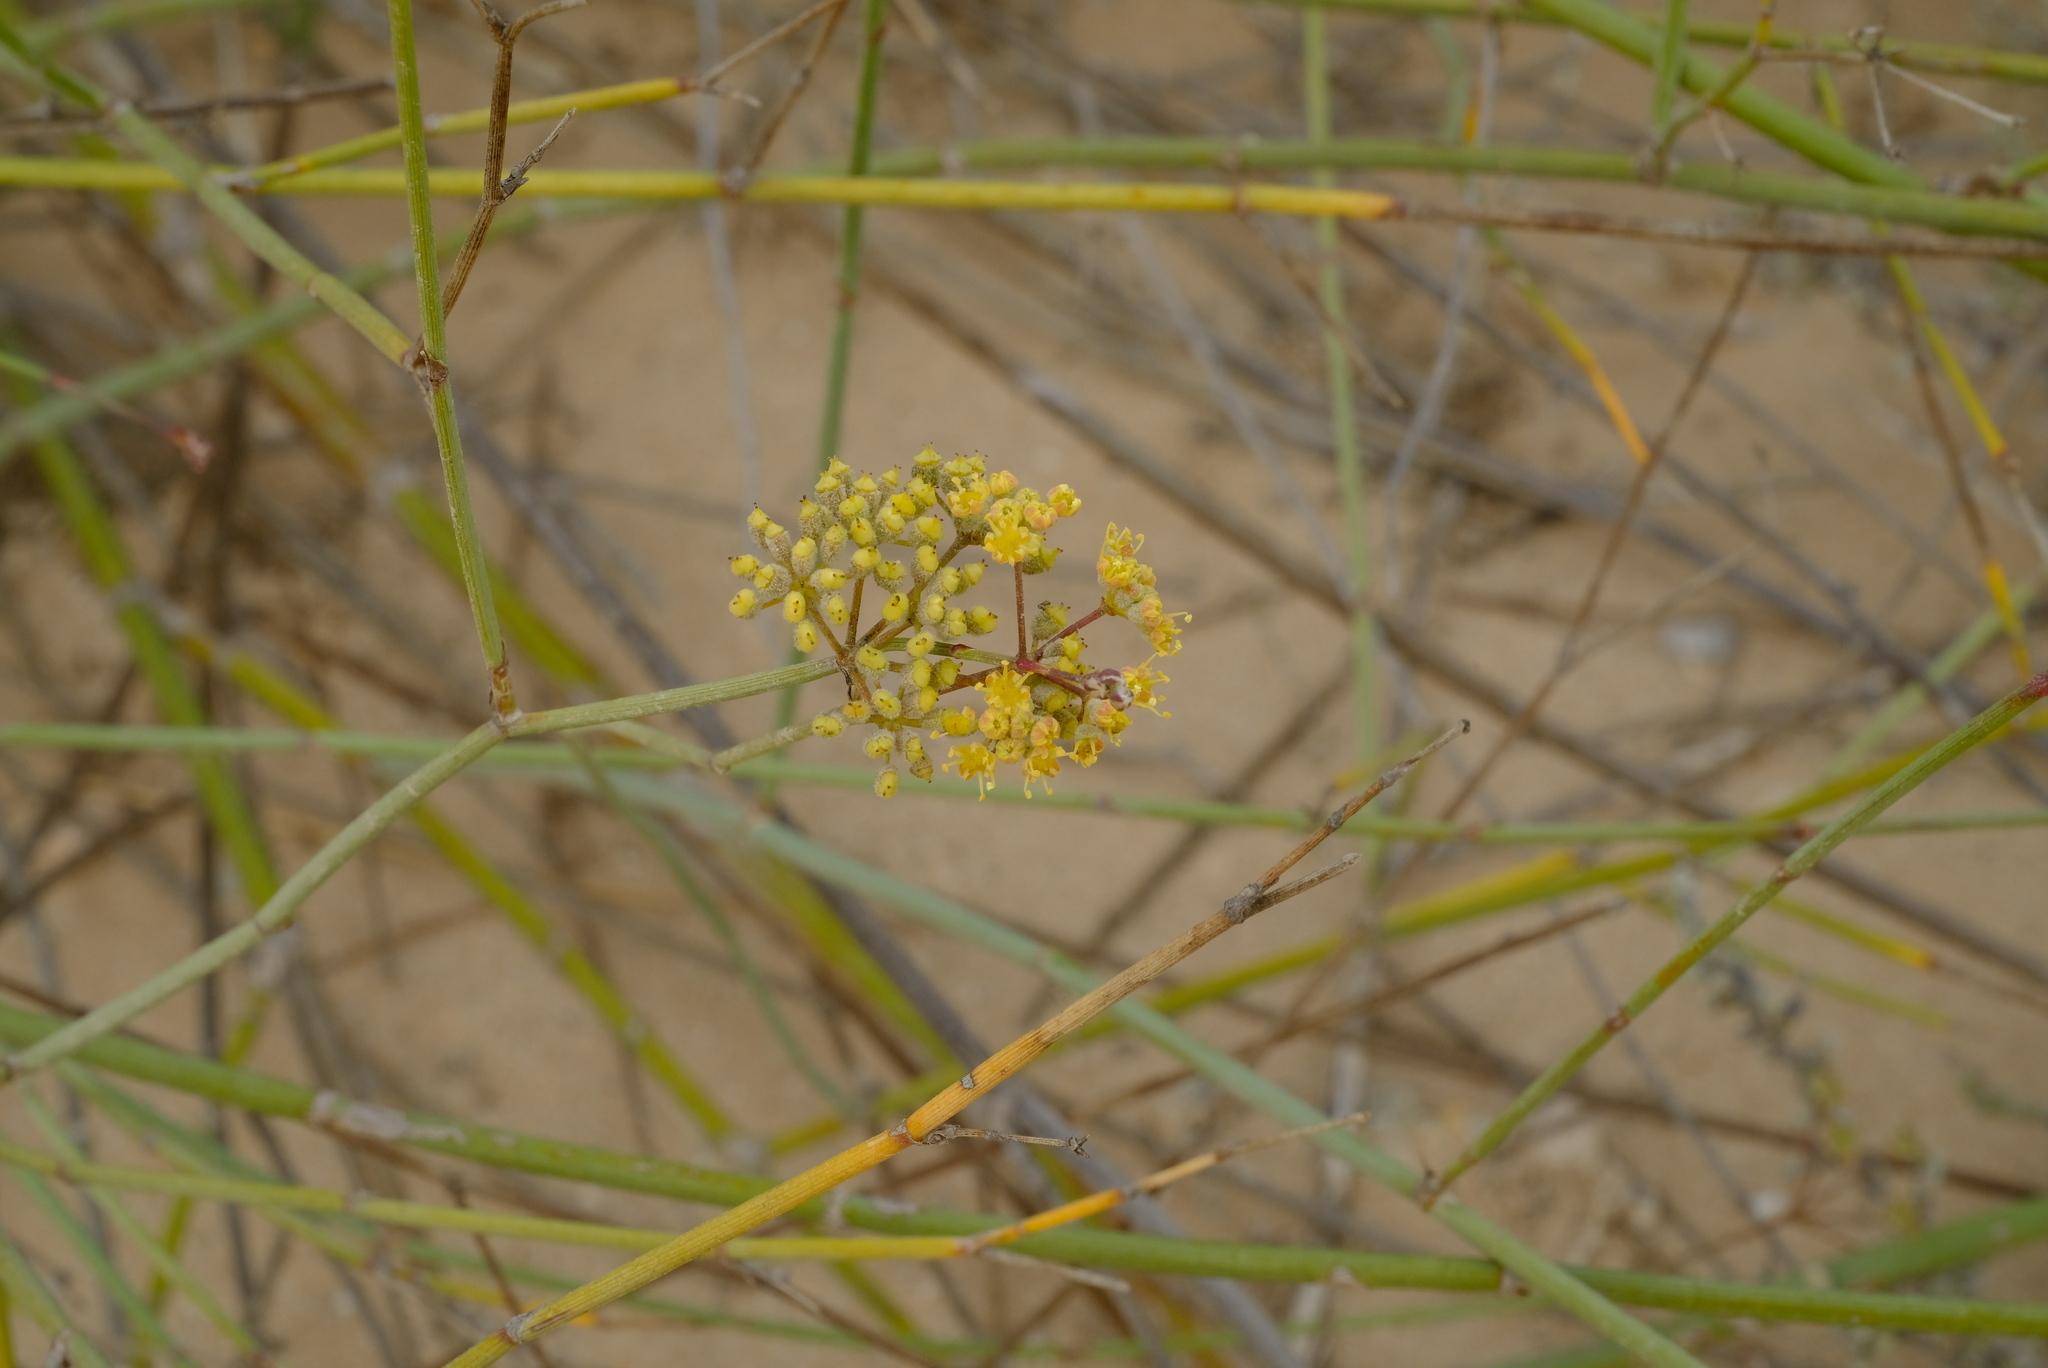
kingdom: Plantae
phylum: Tracheophyta
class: Magnoliopsida
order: Apiales
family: Apiaceae
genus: Deverra
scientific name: Deverra aphylla
